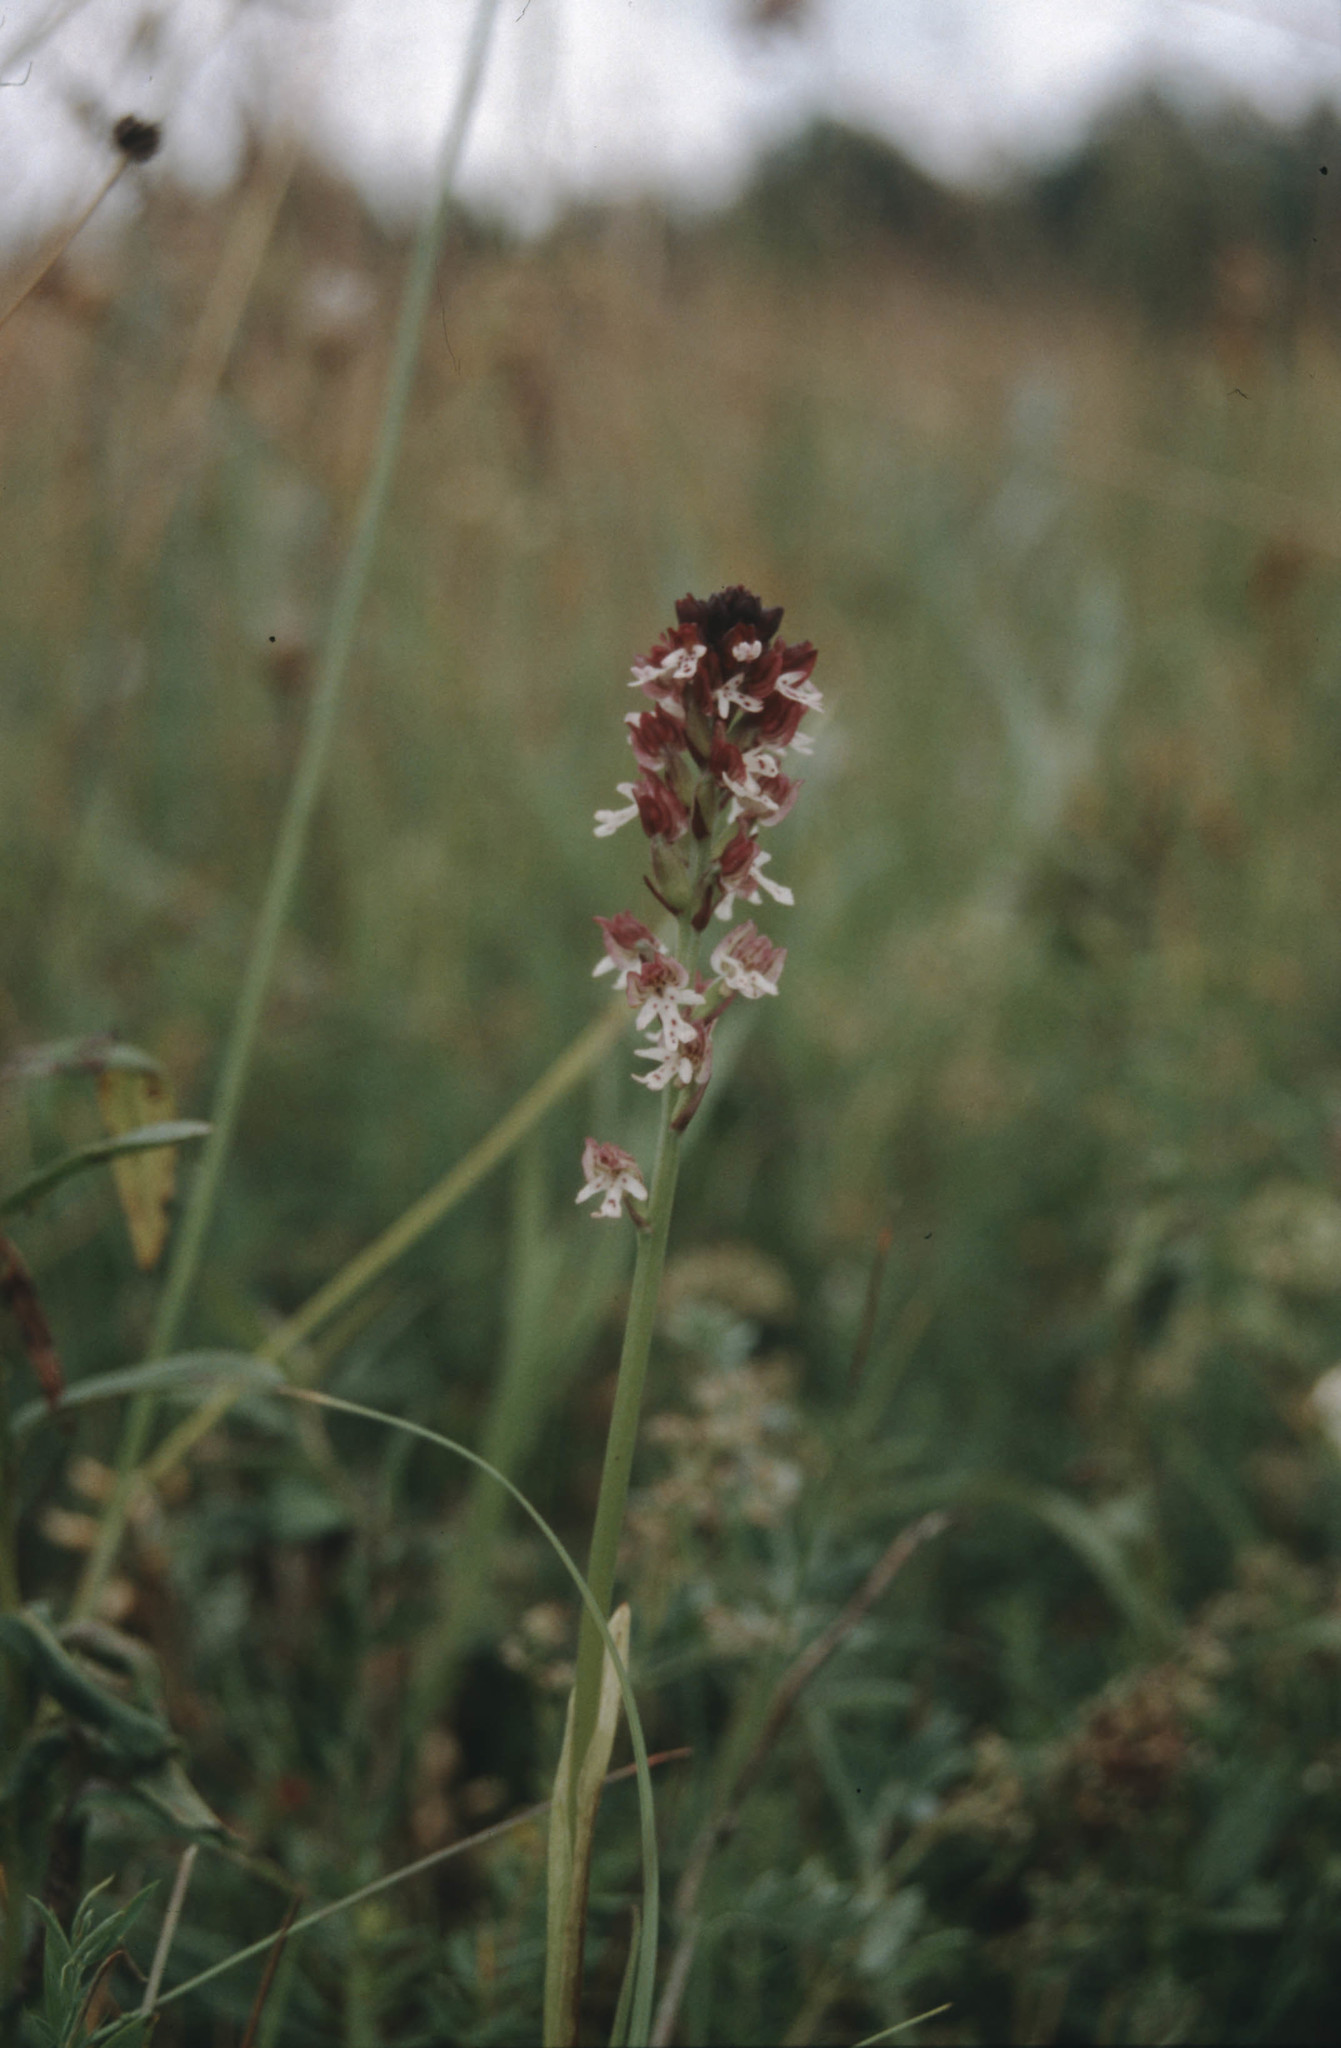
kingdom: Plantae
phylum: Tracheophyta
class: Liliopsida
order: Asparagales
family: Orchidaceae
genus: Neotinea
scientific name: Neotinea ustulata
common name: Burnt orchid
